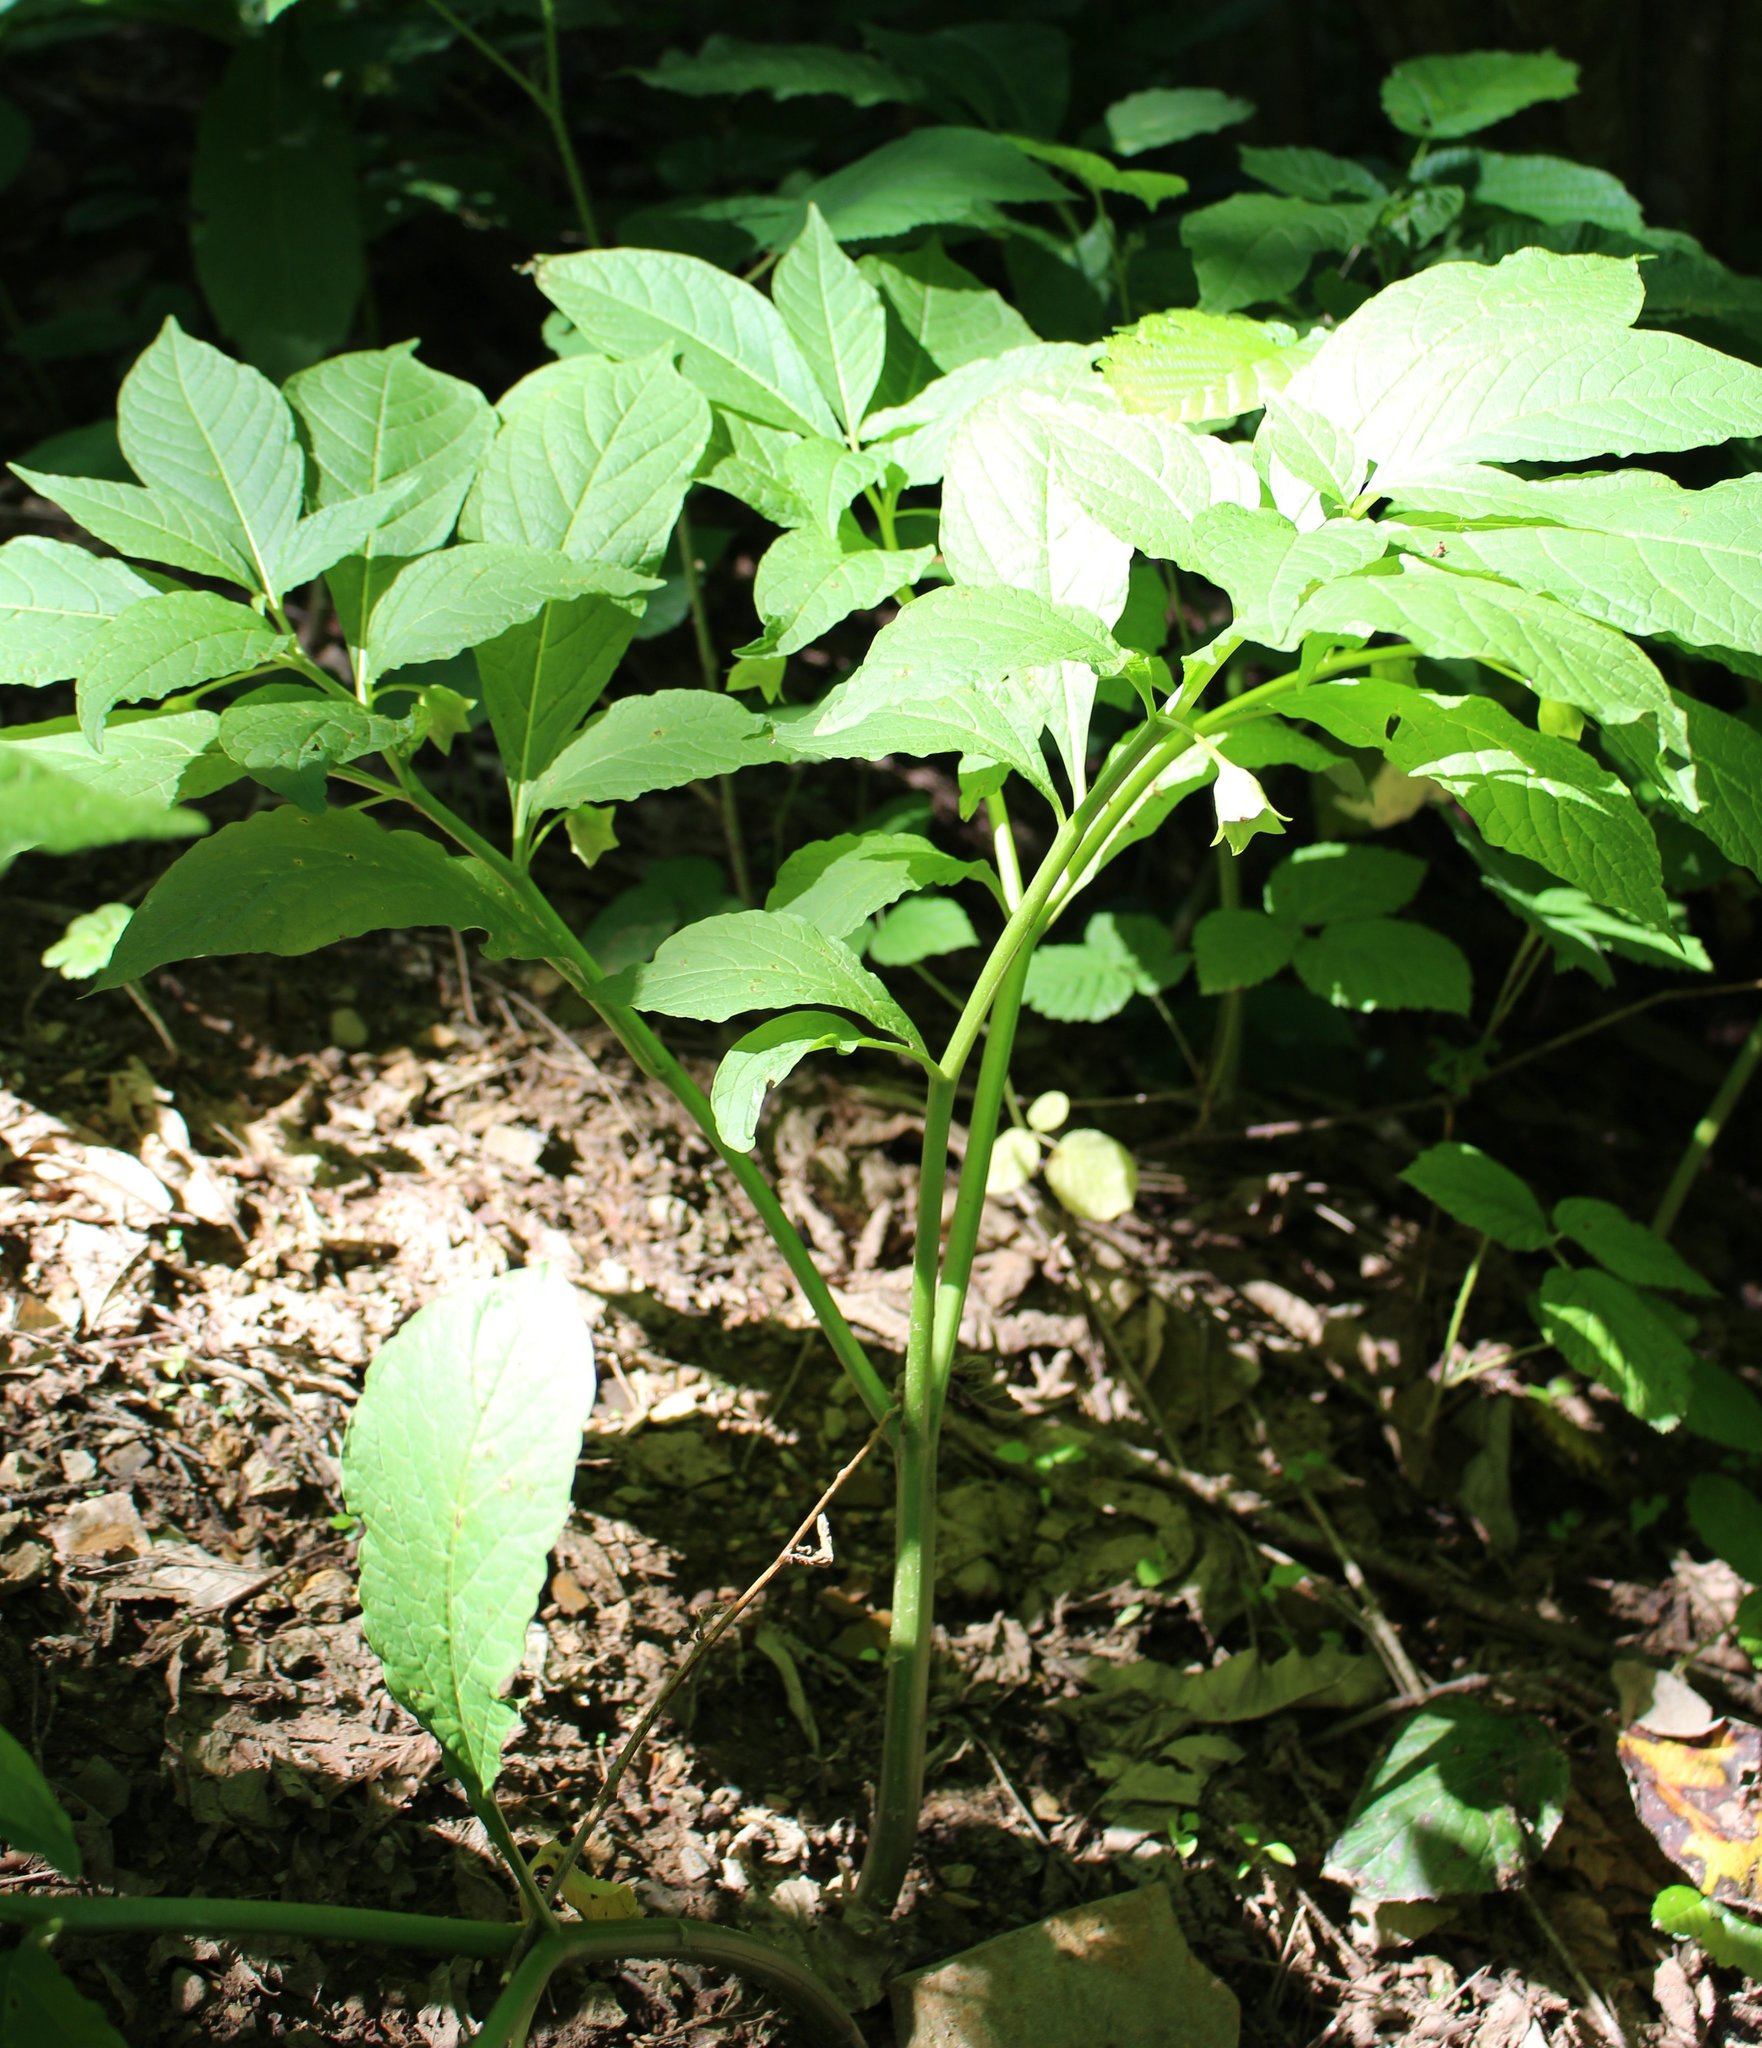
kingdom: Plantae
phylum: Tracheophyta
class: Magnoliopsida
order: Solanales
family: Solanaceae
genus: Scopolia
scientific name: Scopolia carniolica
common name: Scopolia
